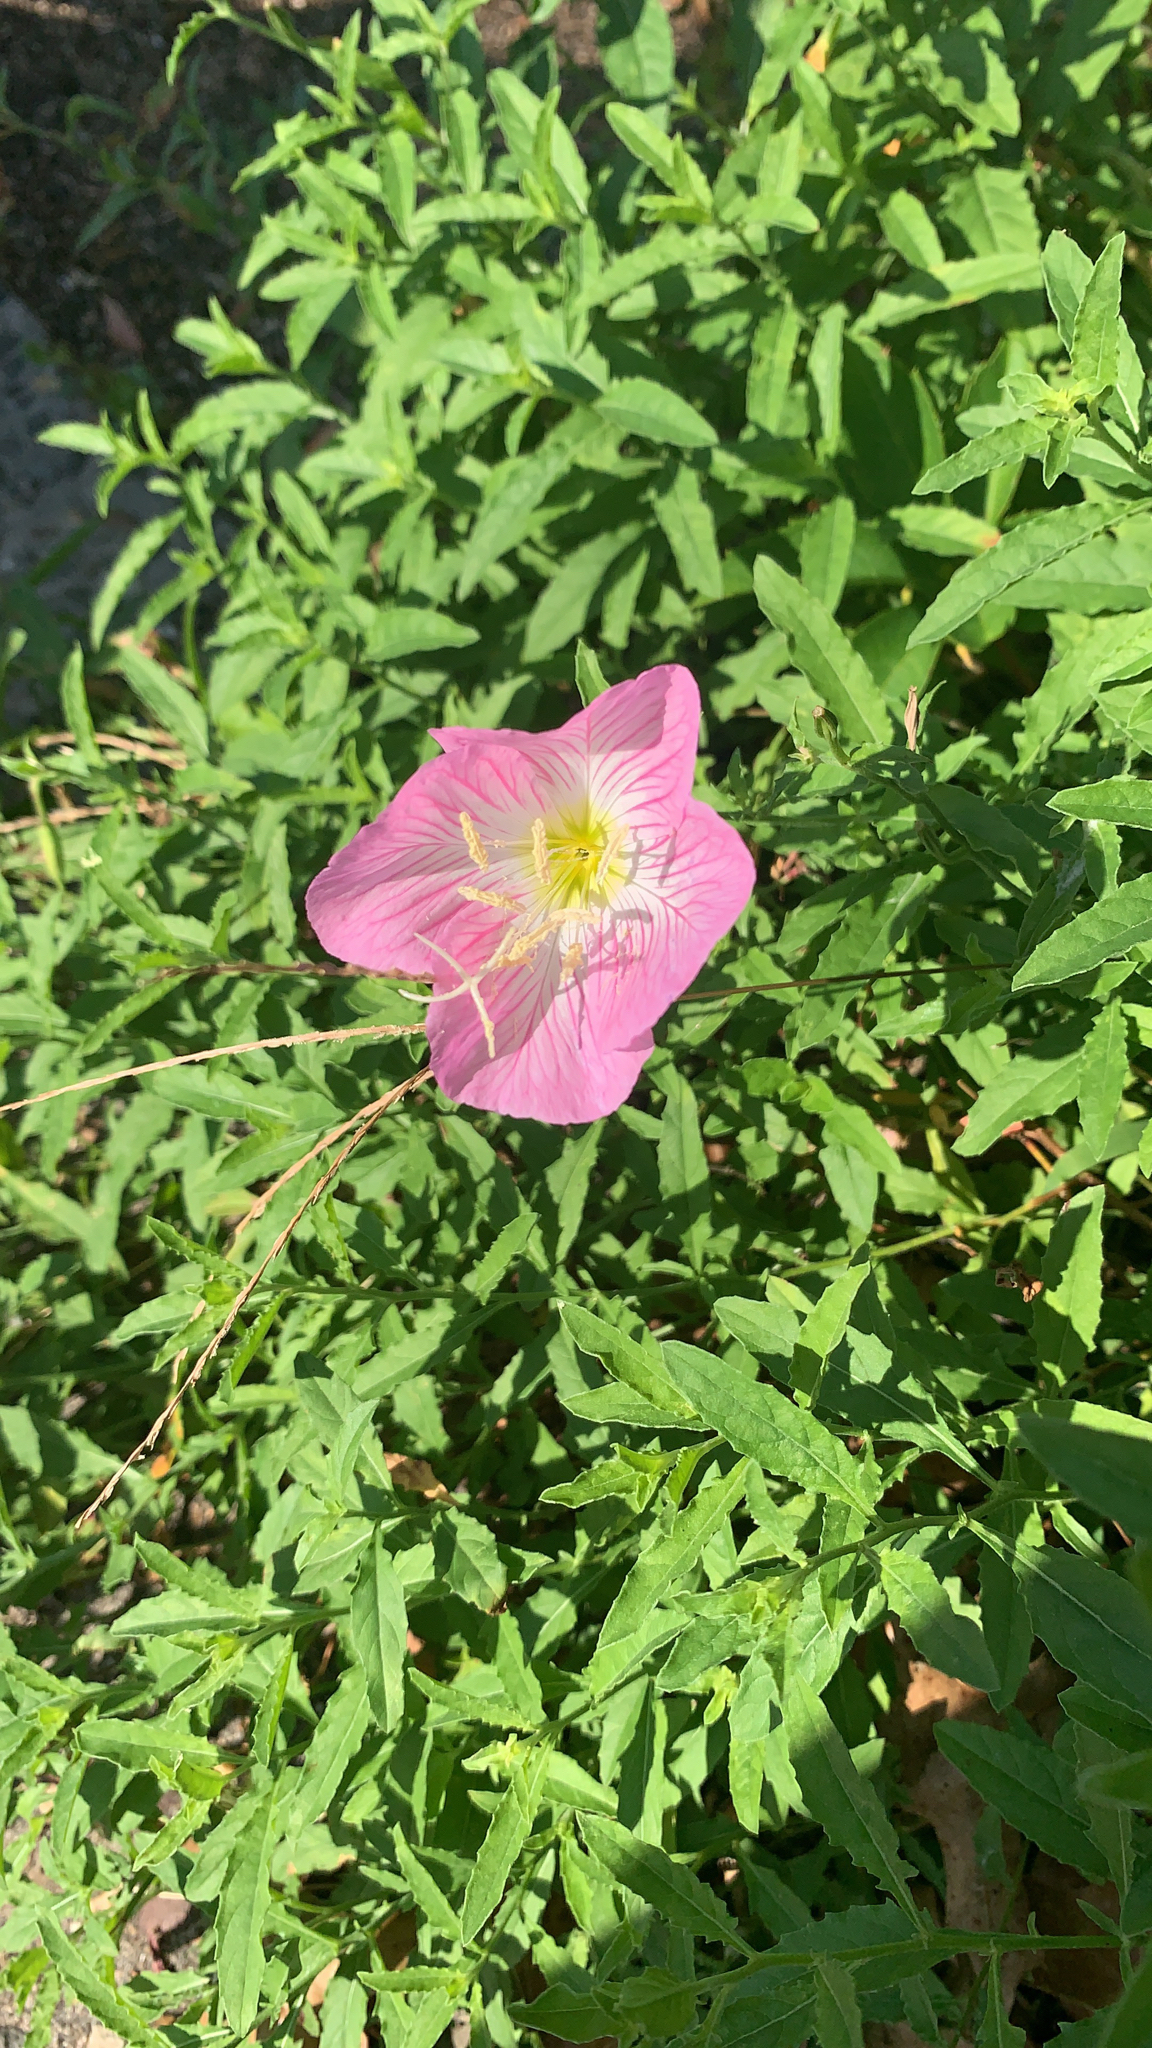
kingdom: Plantae
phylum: Tracheophyta
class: Magnoliopsida
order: Myrtales
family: Onagraceae
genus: Oenothera
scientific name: Oenothera speciosa
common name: White evening-primrose
